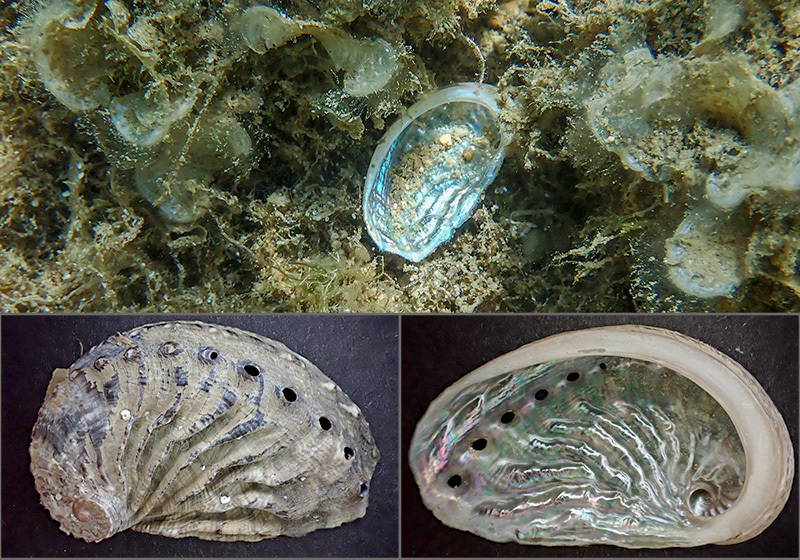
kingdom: Animalia
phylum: Mollusca
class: Gastropoda
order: Lepetellida
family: Haliotidae
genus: Haliotis
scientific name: Haliotis tuberculata
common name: Green ormer
